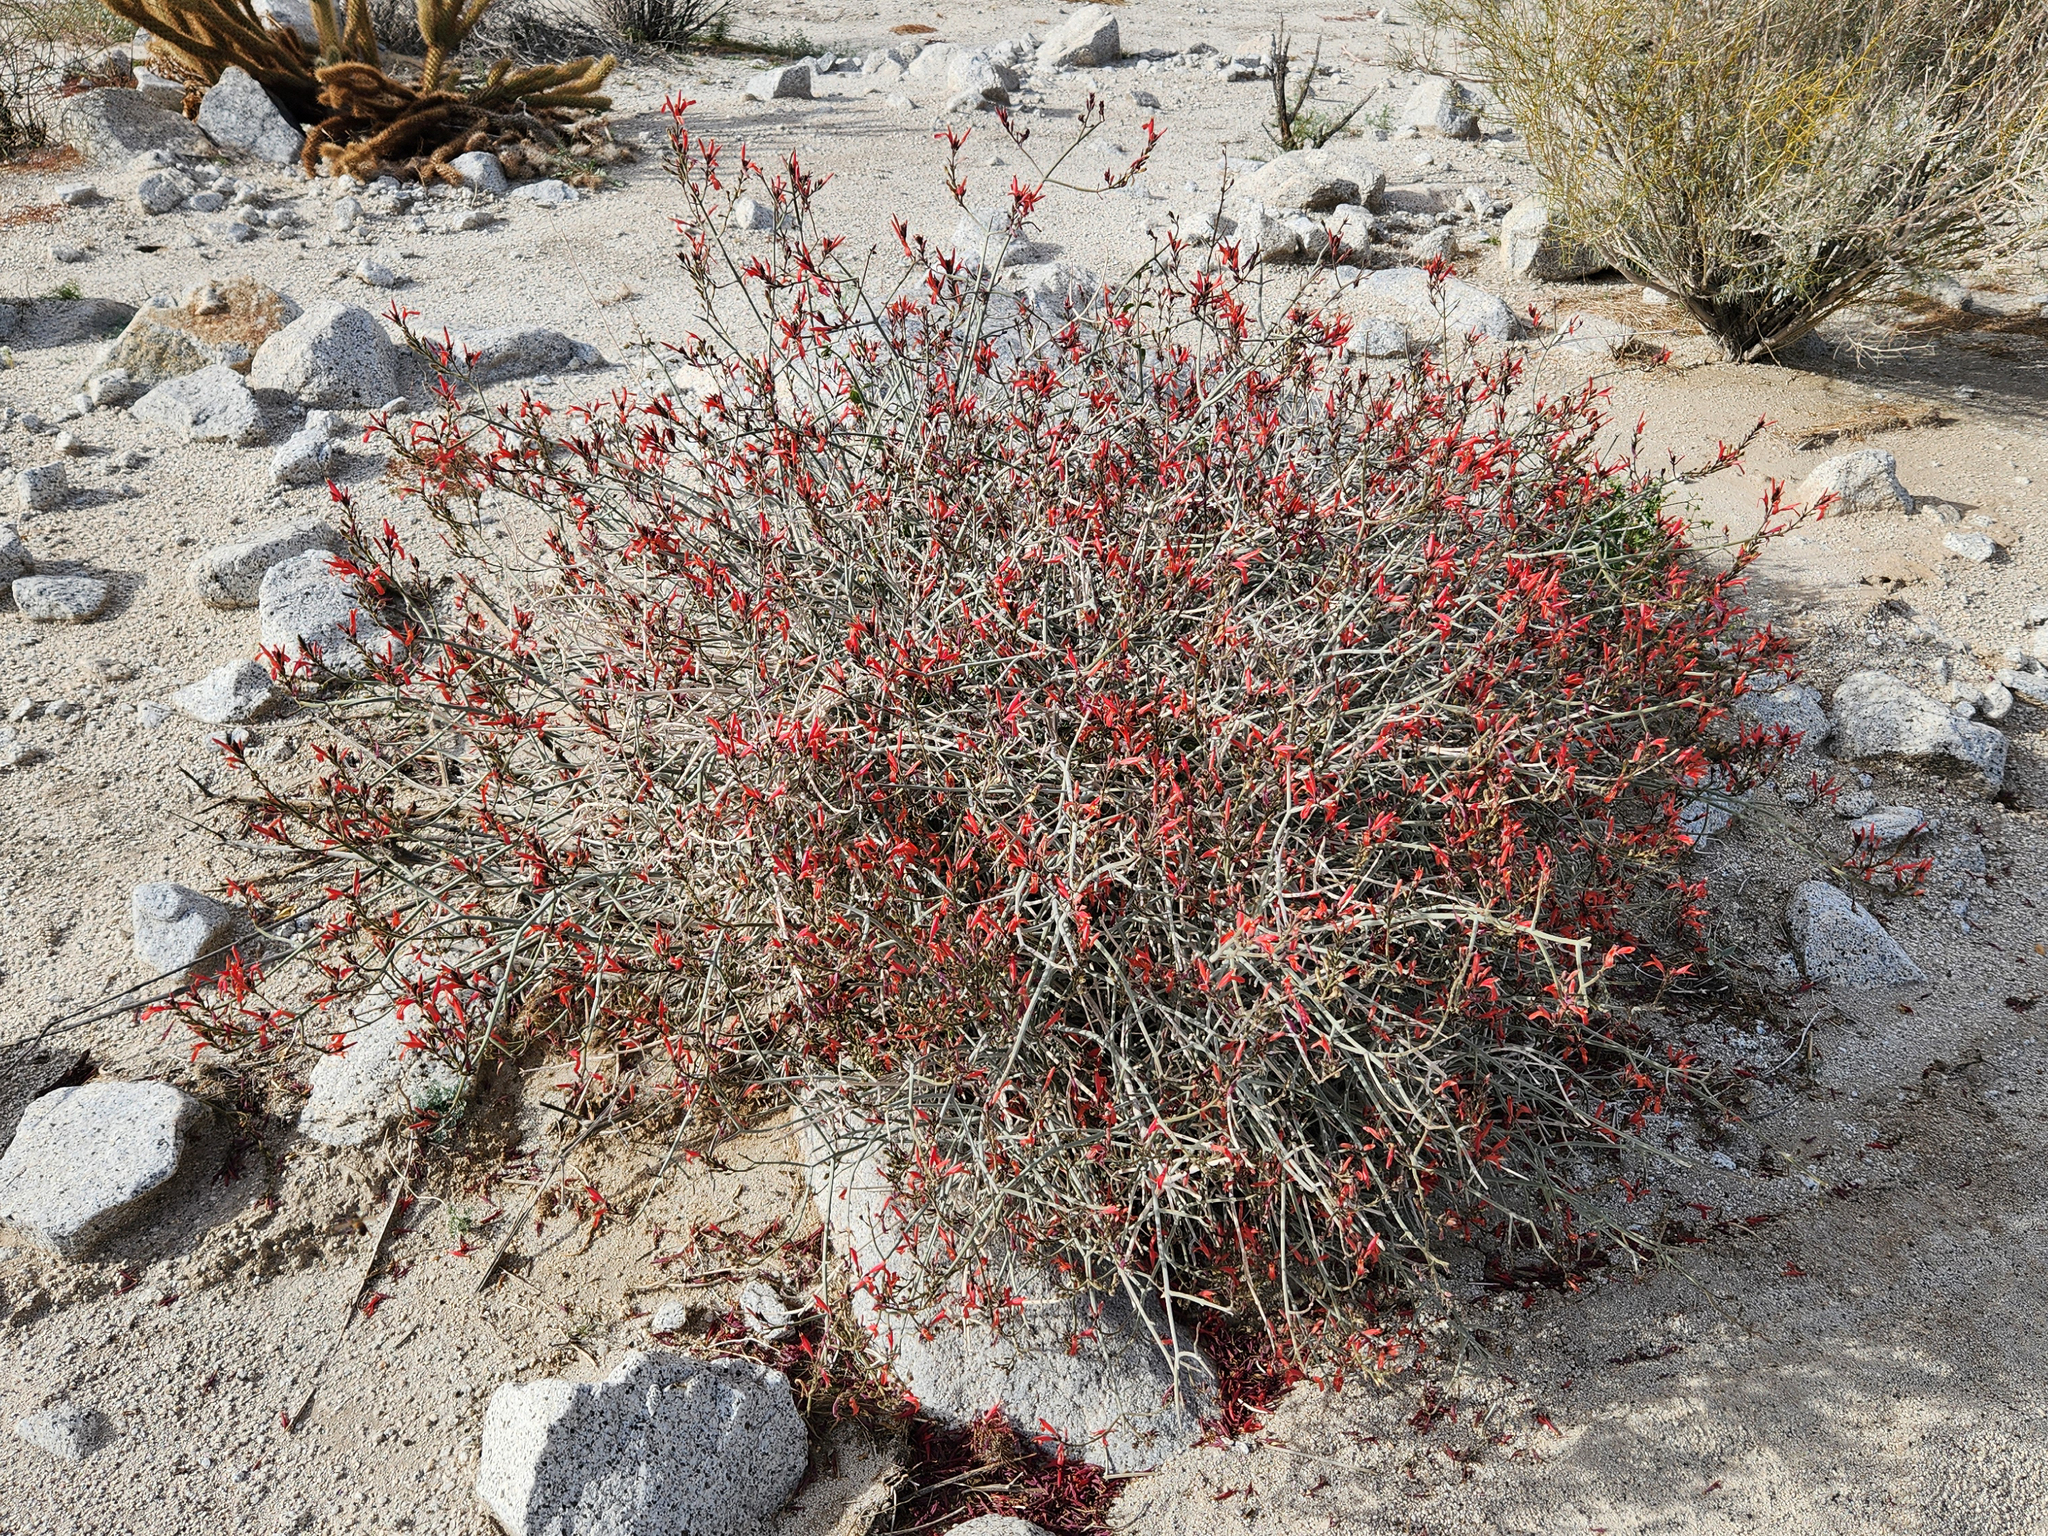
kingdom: Plantae
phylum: Tracheophyta
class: Magnoliopsida
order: Lamiales
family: Acanthaceae
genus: Justicia
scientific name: Justicia californica
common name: Chuparosa-honeysuckle
